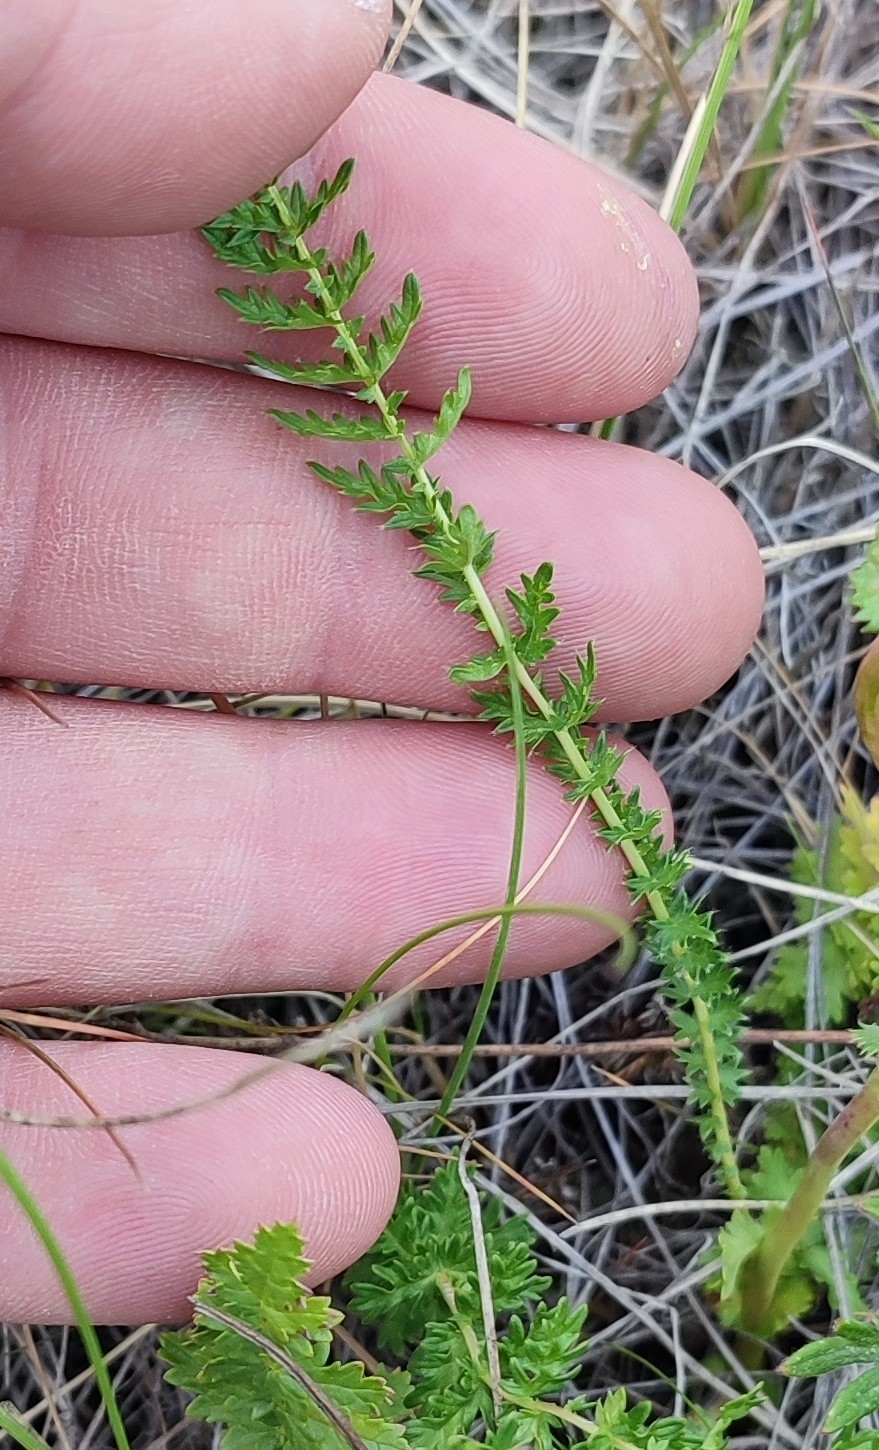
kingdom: Plantae
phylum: Tracheophyta
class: Magnoliopsida
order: Rosales
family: Rosaceae
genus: Filipendula
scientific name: Filipendula vulgaris
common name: Dropwort
